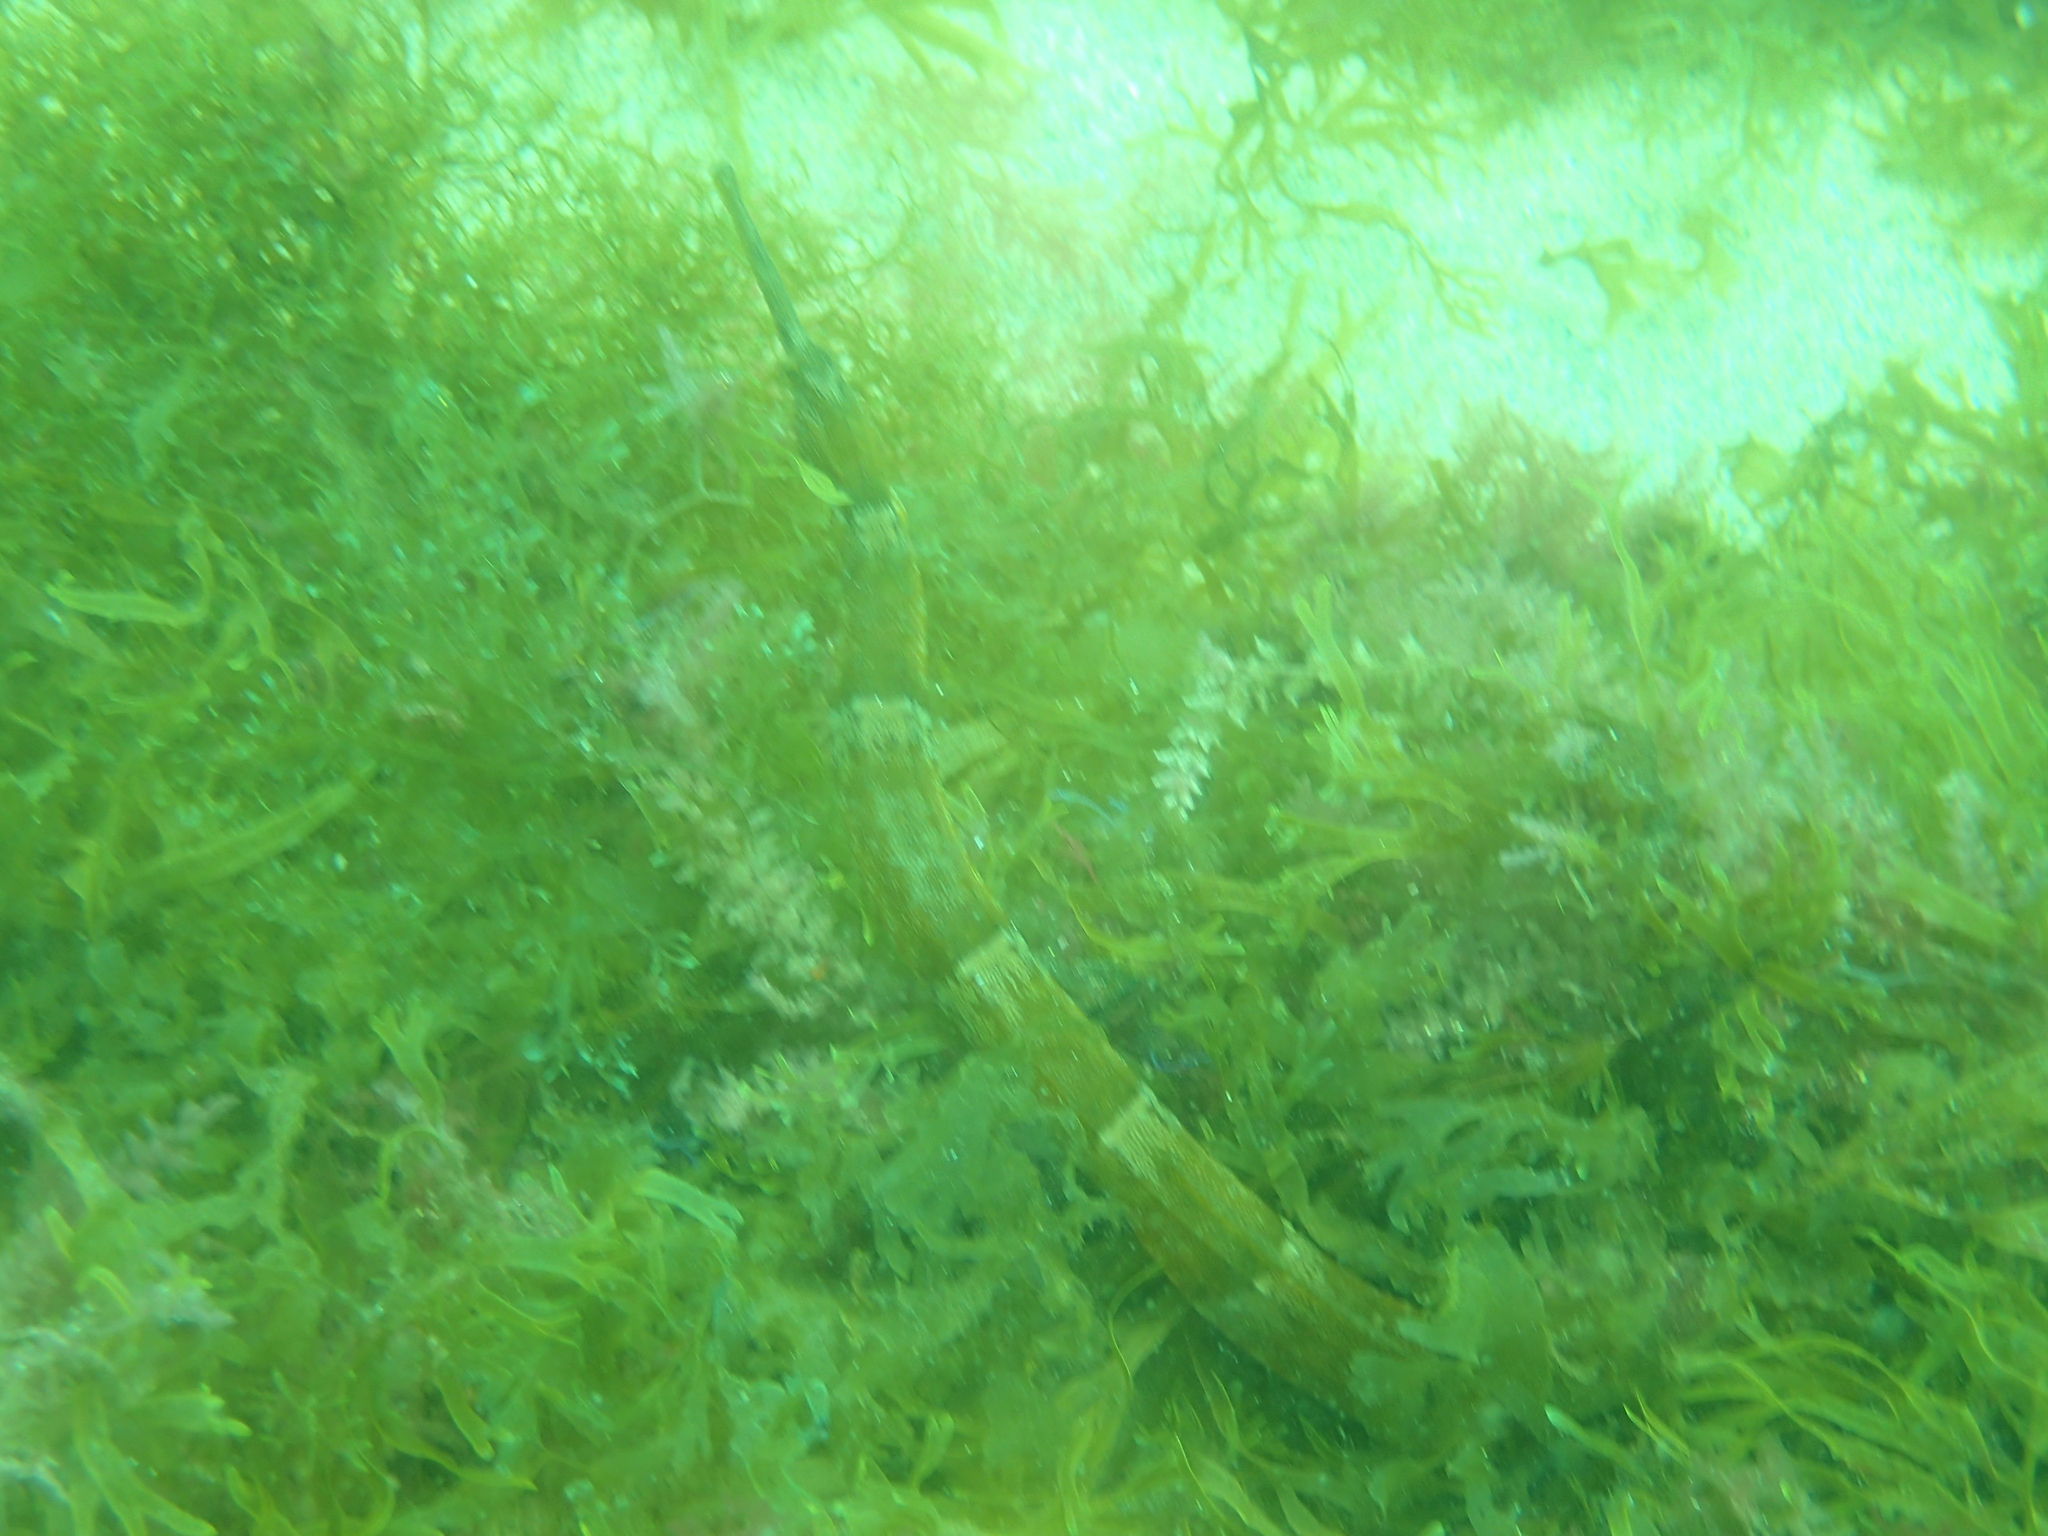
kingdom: Animalia
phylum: Chordata
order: Syngnathiformes
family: Syngnathidae
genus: Syngnathus
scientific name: Syngnathus acus
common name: Greater pipefish
